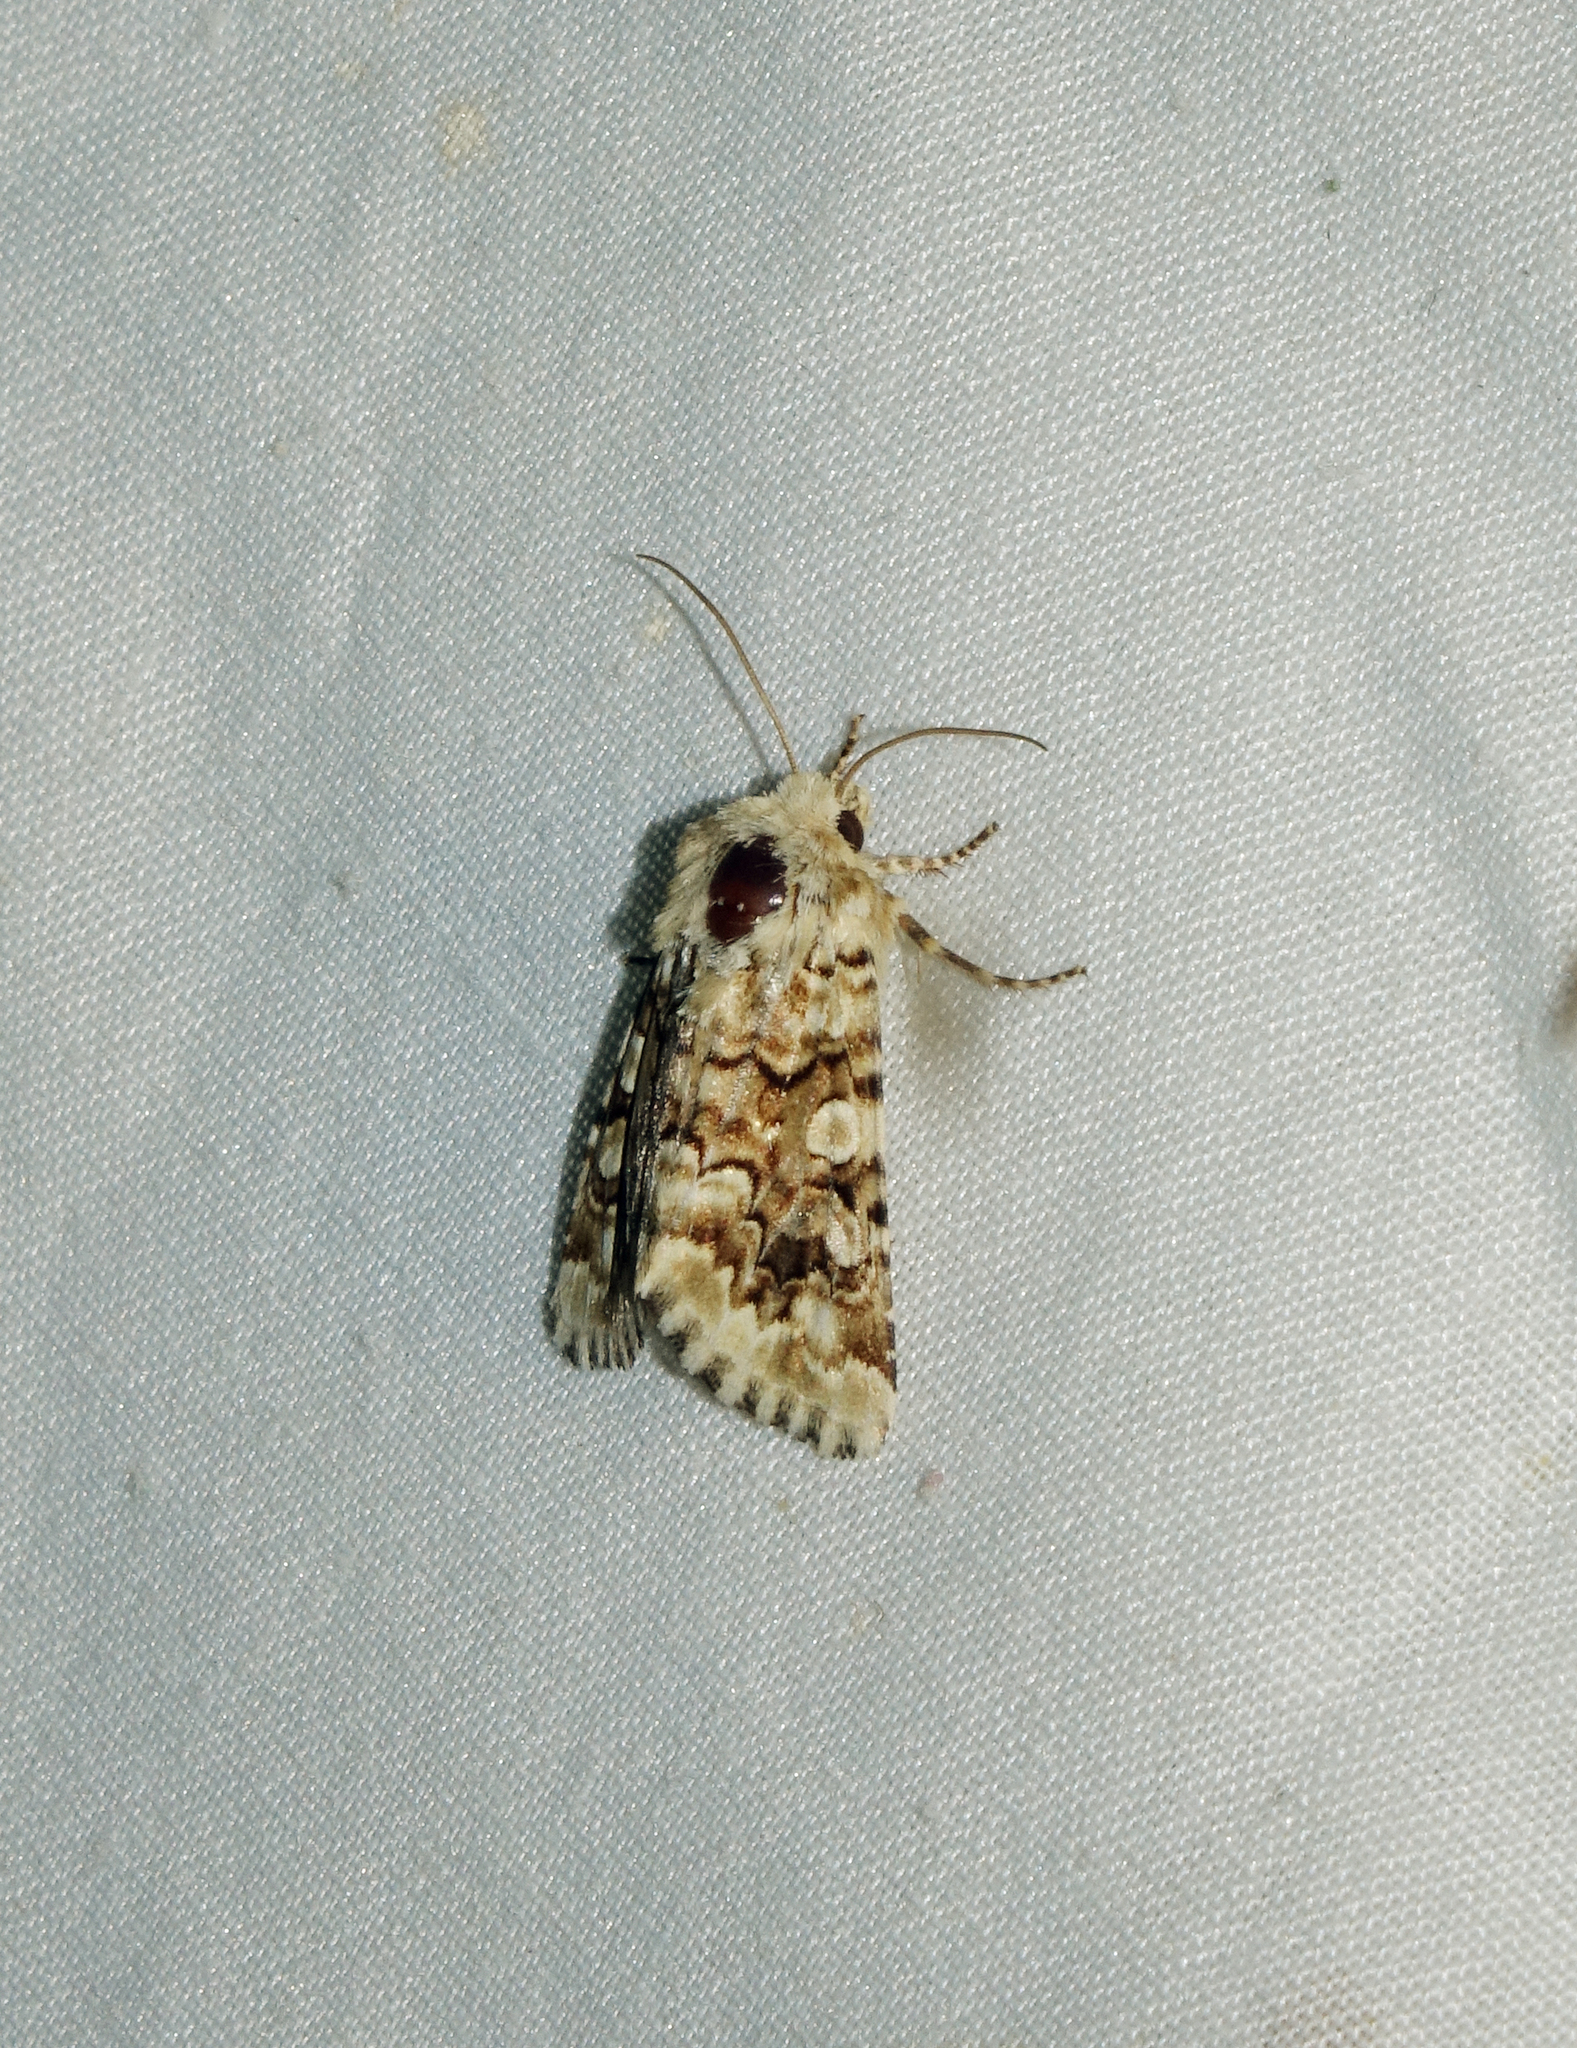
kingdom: Animalia
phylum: Arthropoda
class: Insecta
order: Lepidoptera
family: Noctuidae
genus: Hadena
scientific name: Hadena irregularis
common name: Vipers bugloss
